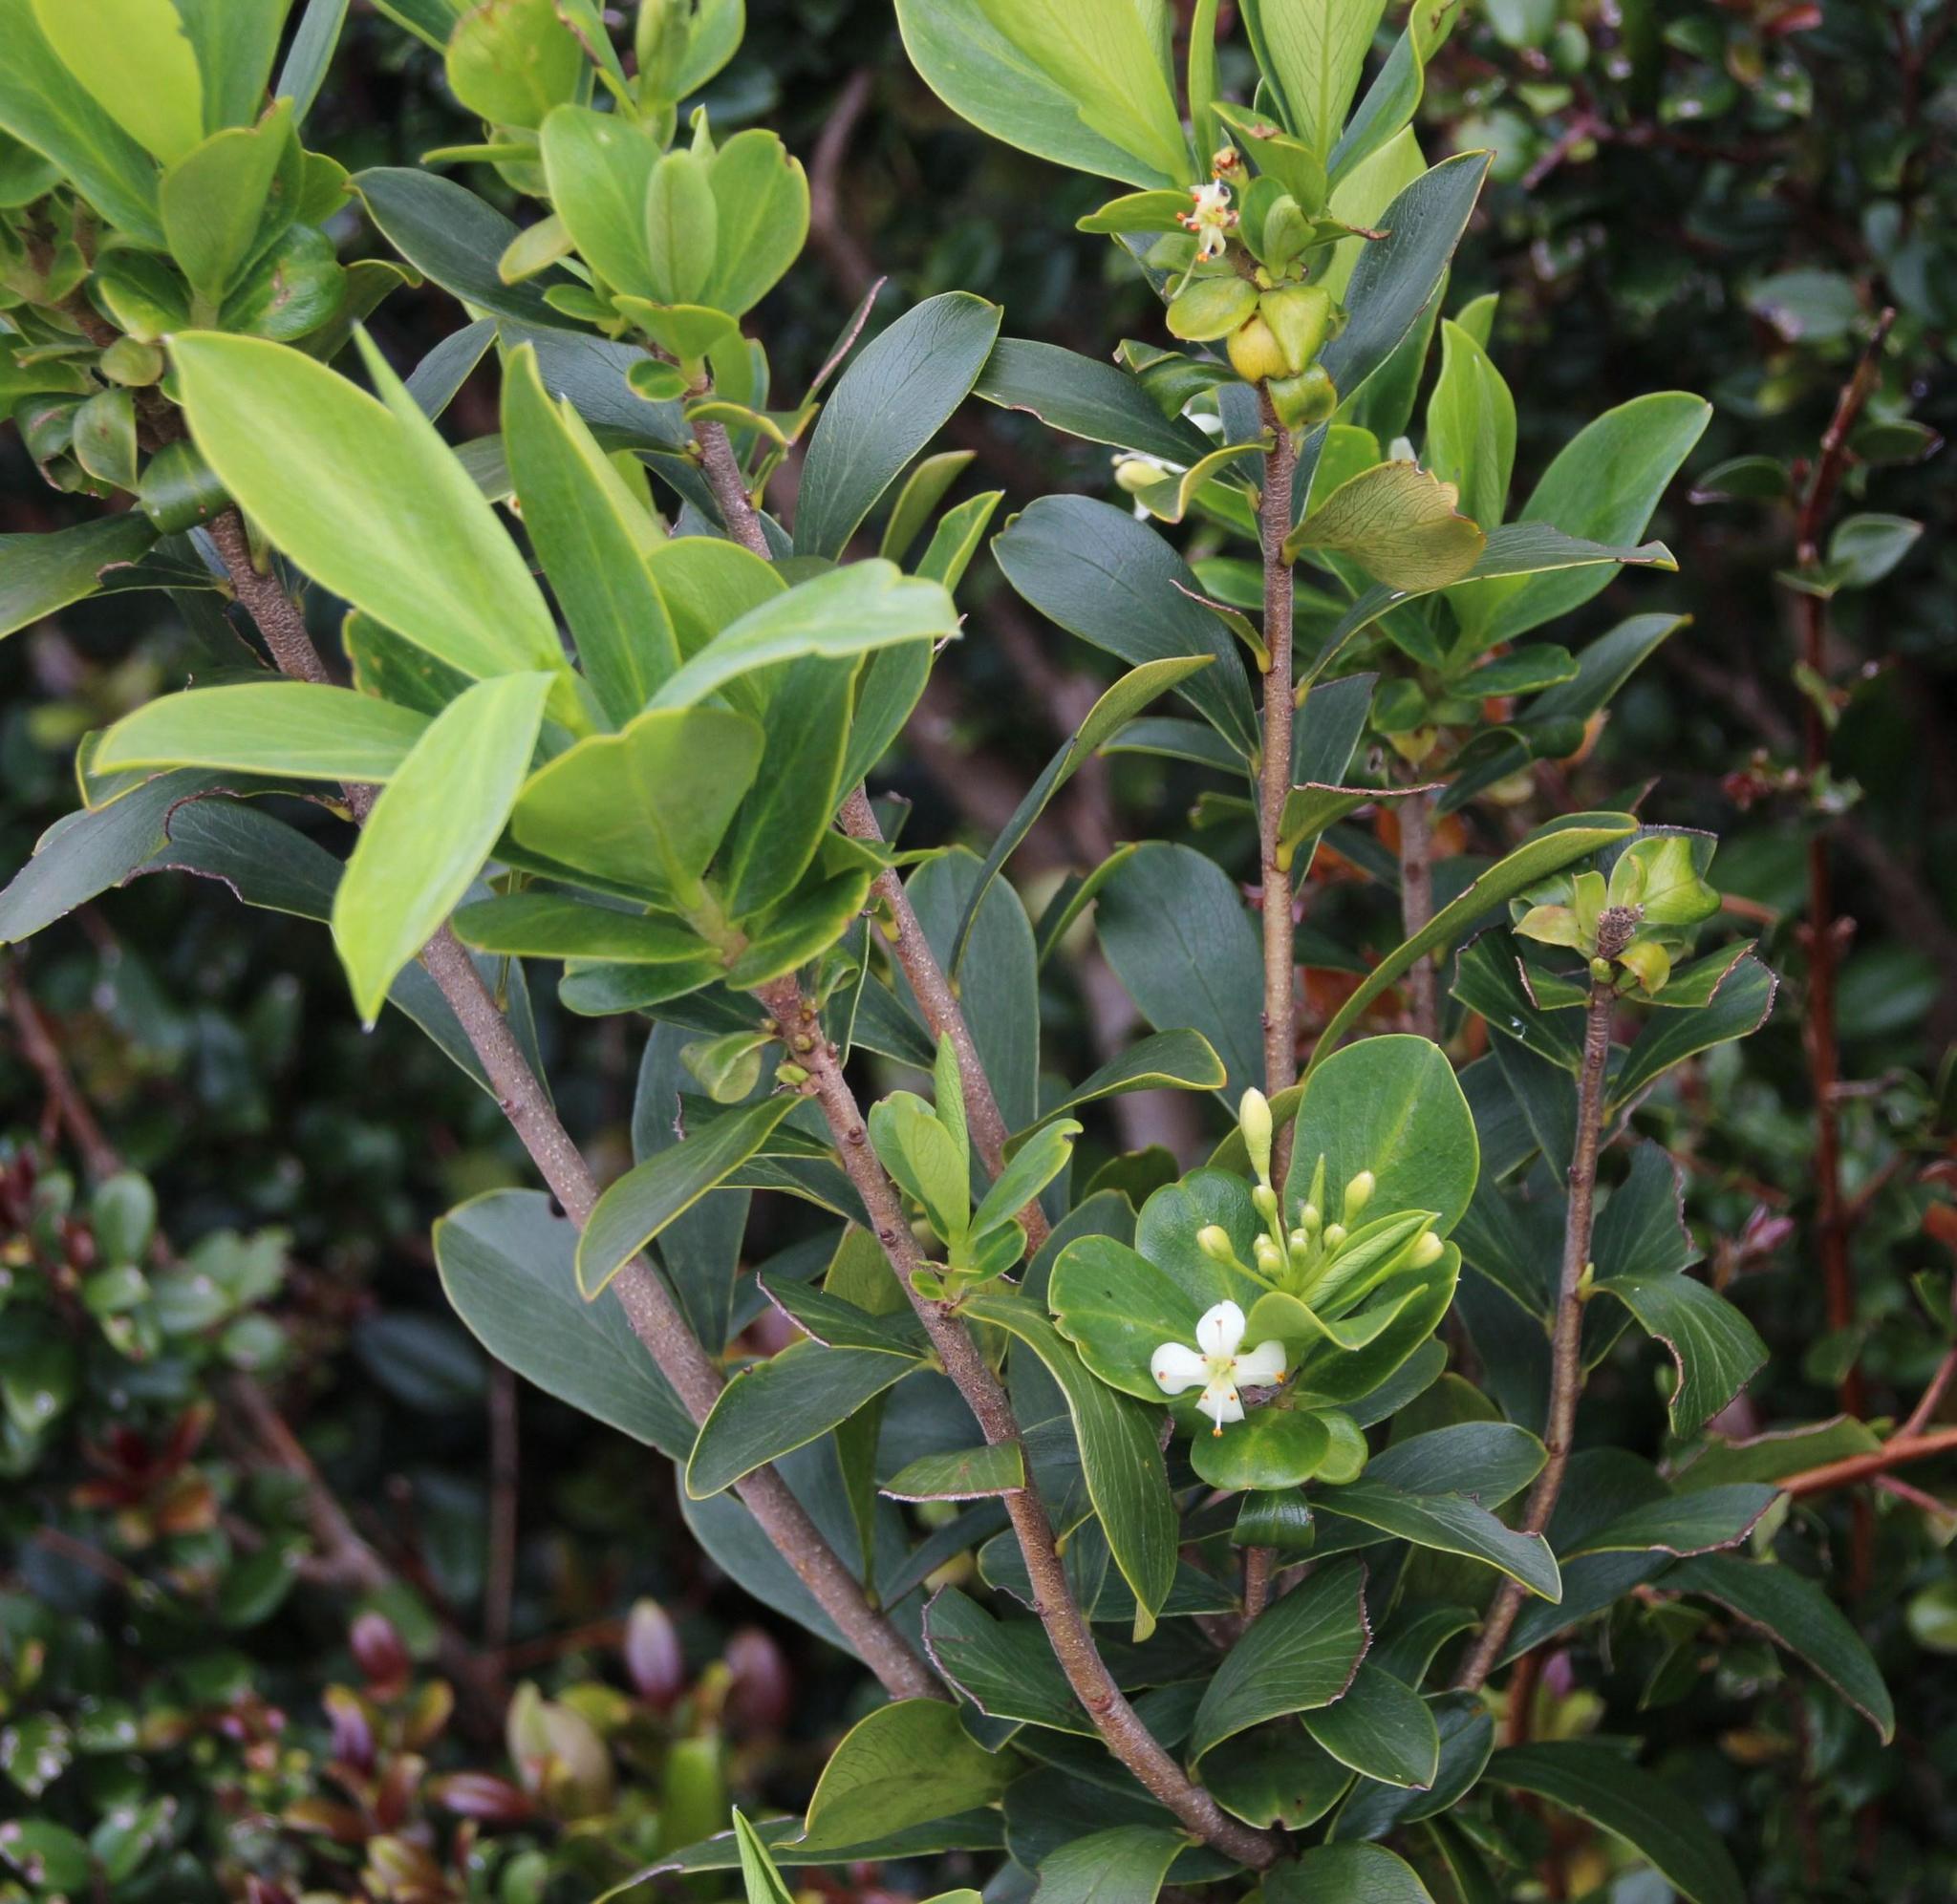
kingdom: Plantae
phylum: Tracheophyta
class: Magnoliopsida
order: Malvales
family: Thymelaeaceae
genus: Ovidia
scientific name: Ovidia andina
